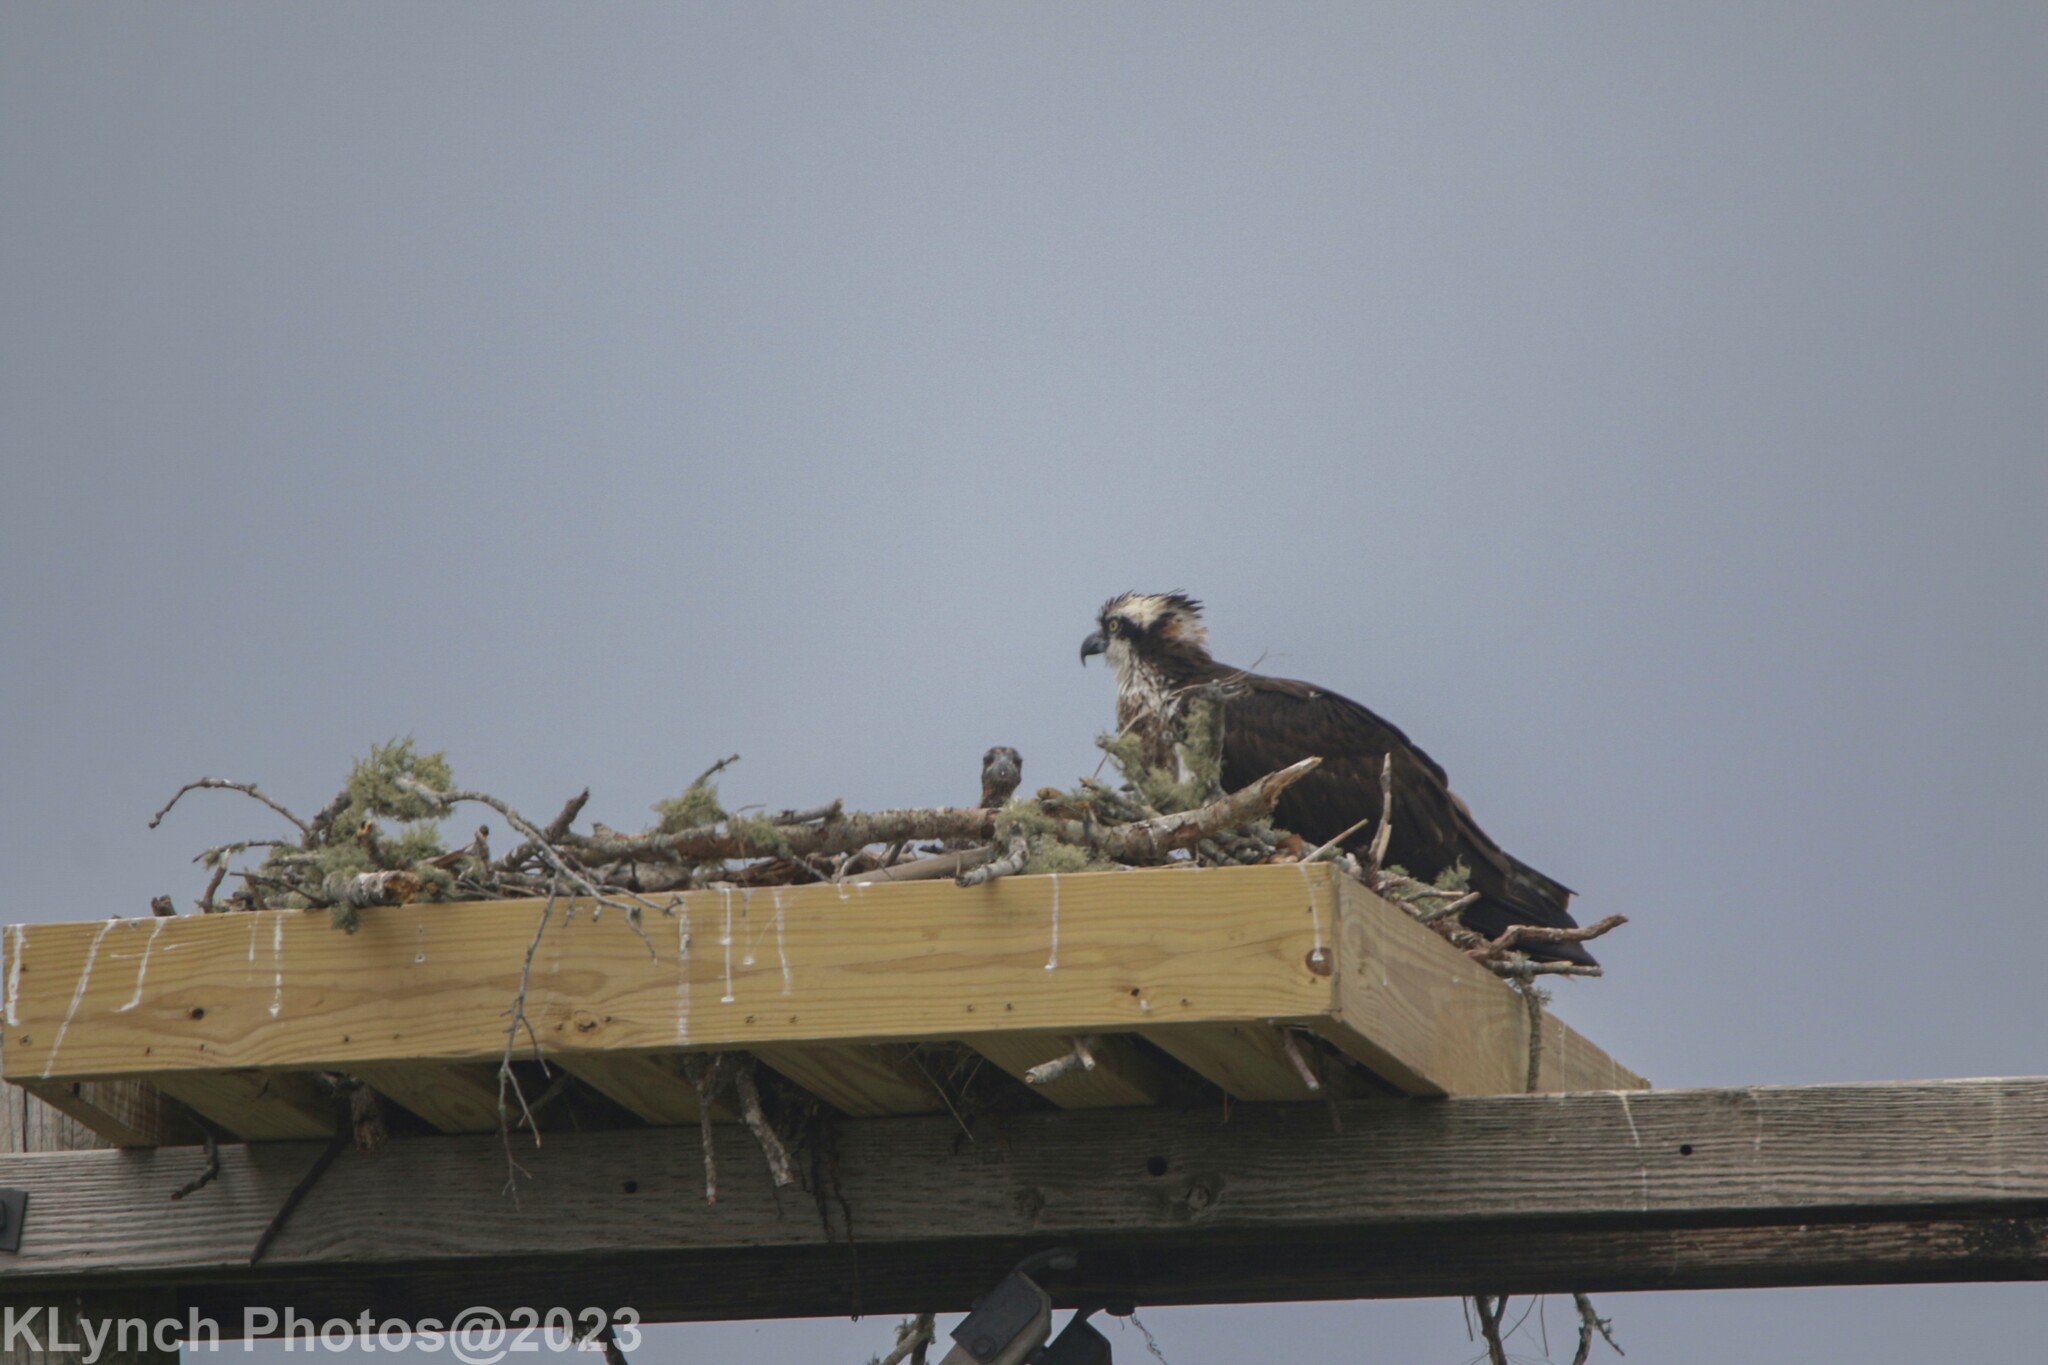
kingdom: Animalia
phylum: Chordata
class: Aves
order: Accipitriformes
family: Pandionidae
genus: Pandion
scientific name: Pandion haliaetus
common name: Osprey
